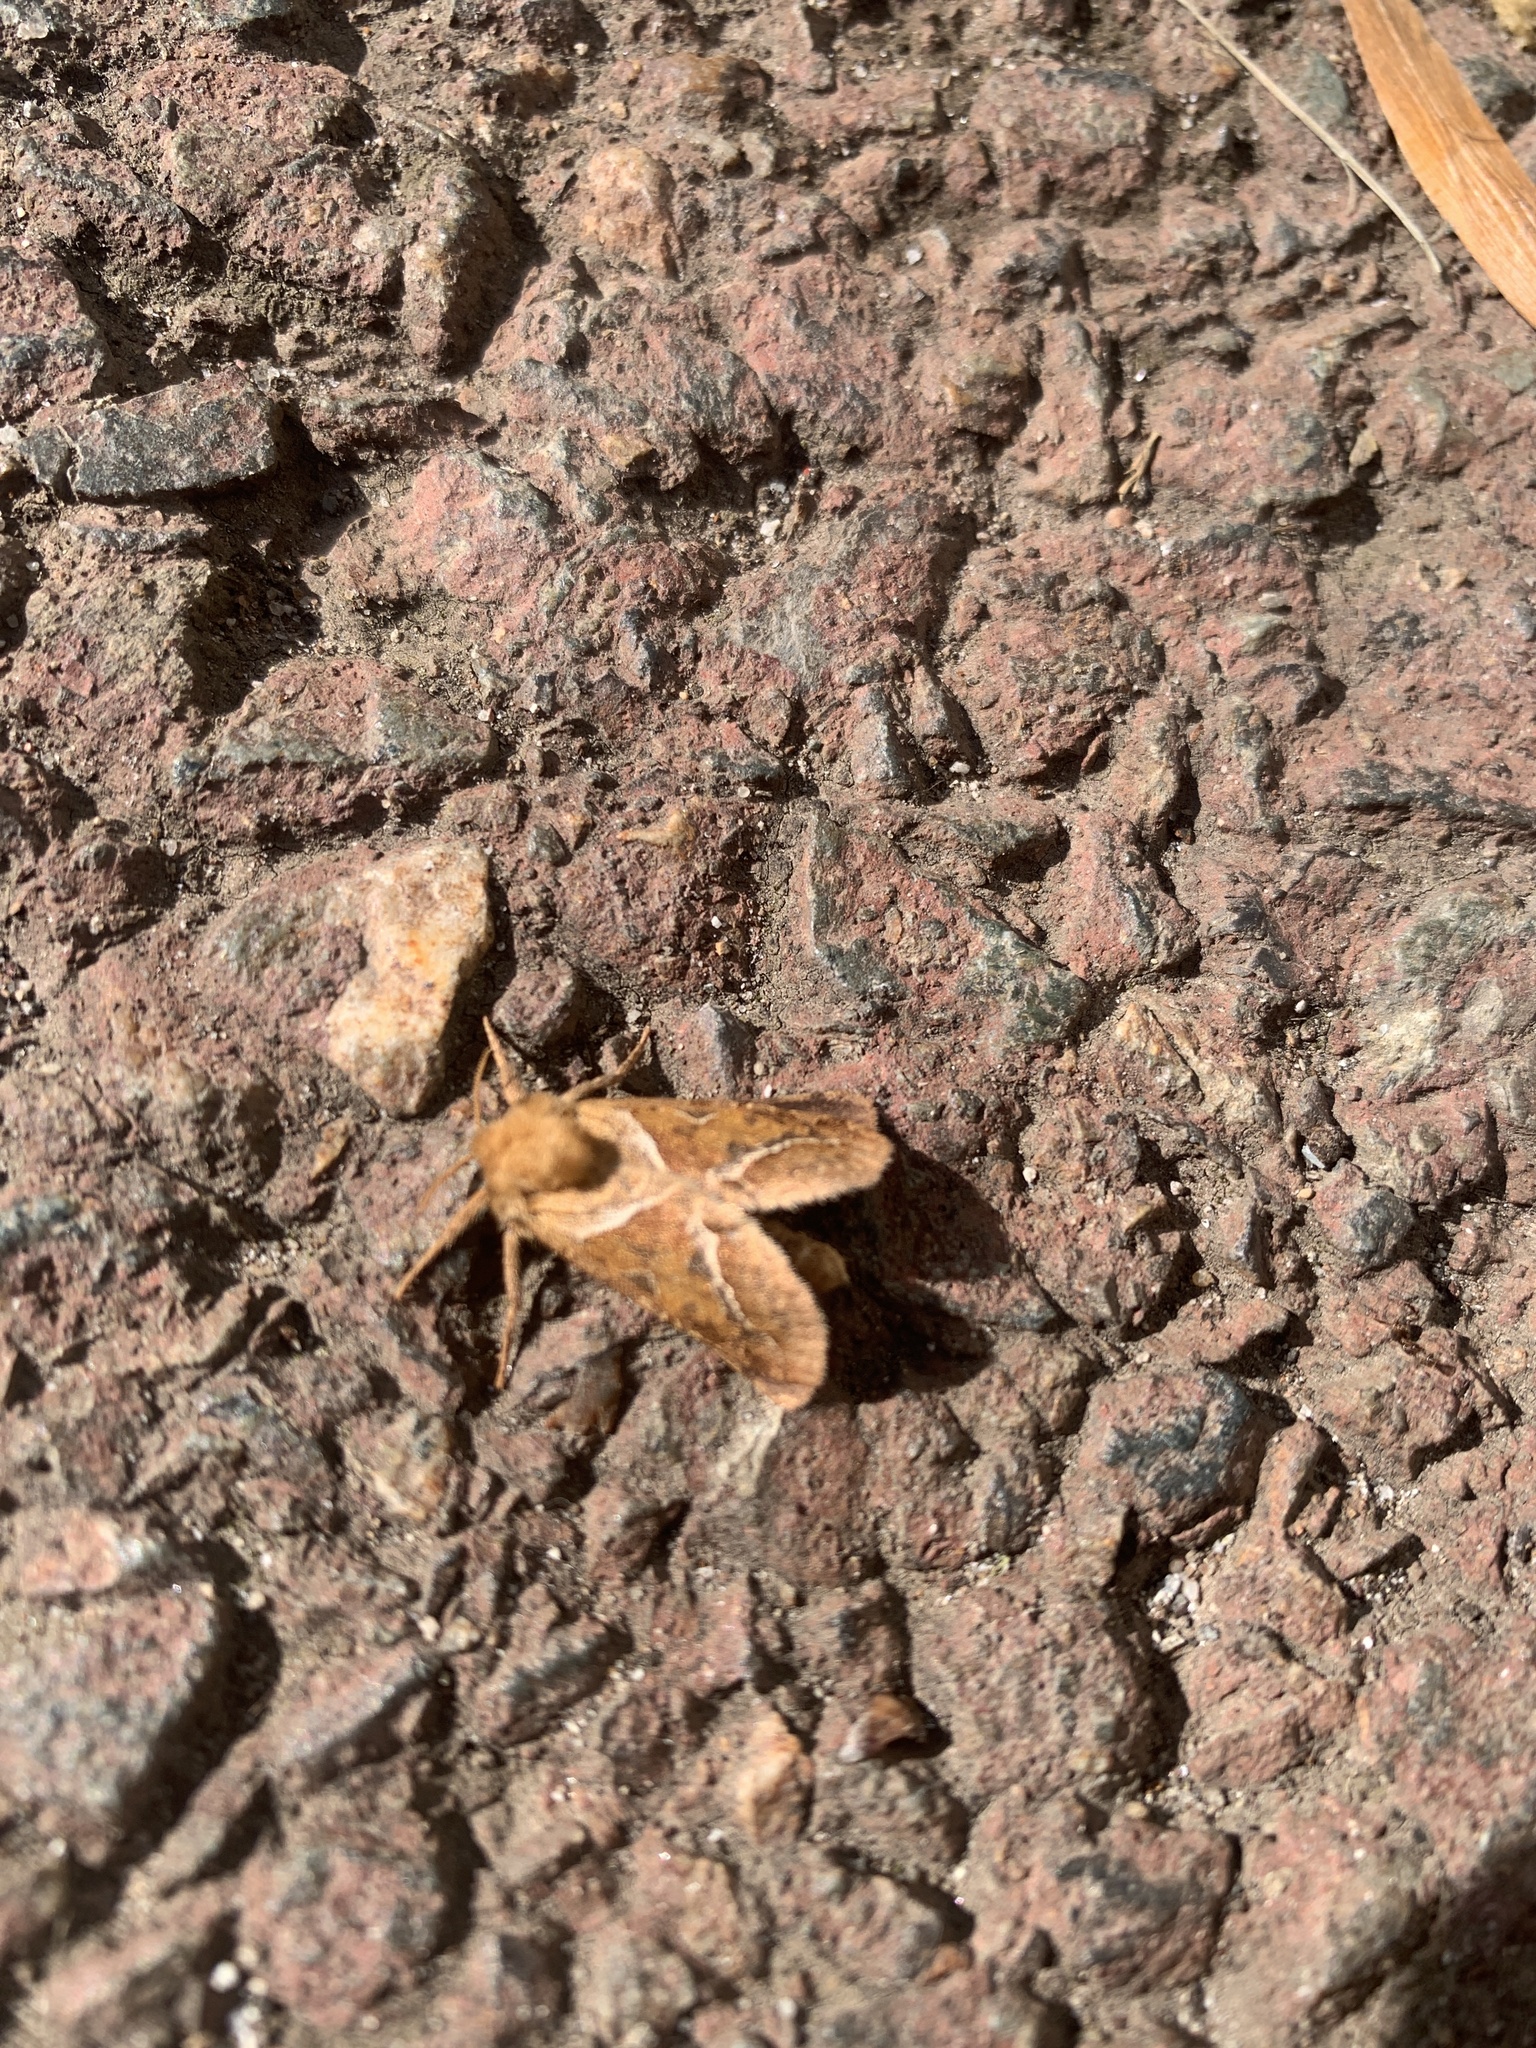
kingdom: Animalia
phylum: Arthropoda
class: Insecta
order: Lepidoptera
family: Hepialidae
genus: Triodia
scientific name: Triodia sylvina
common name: Orange swift
